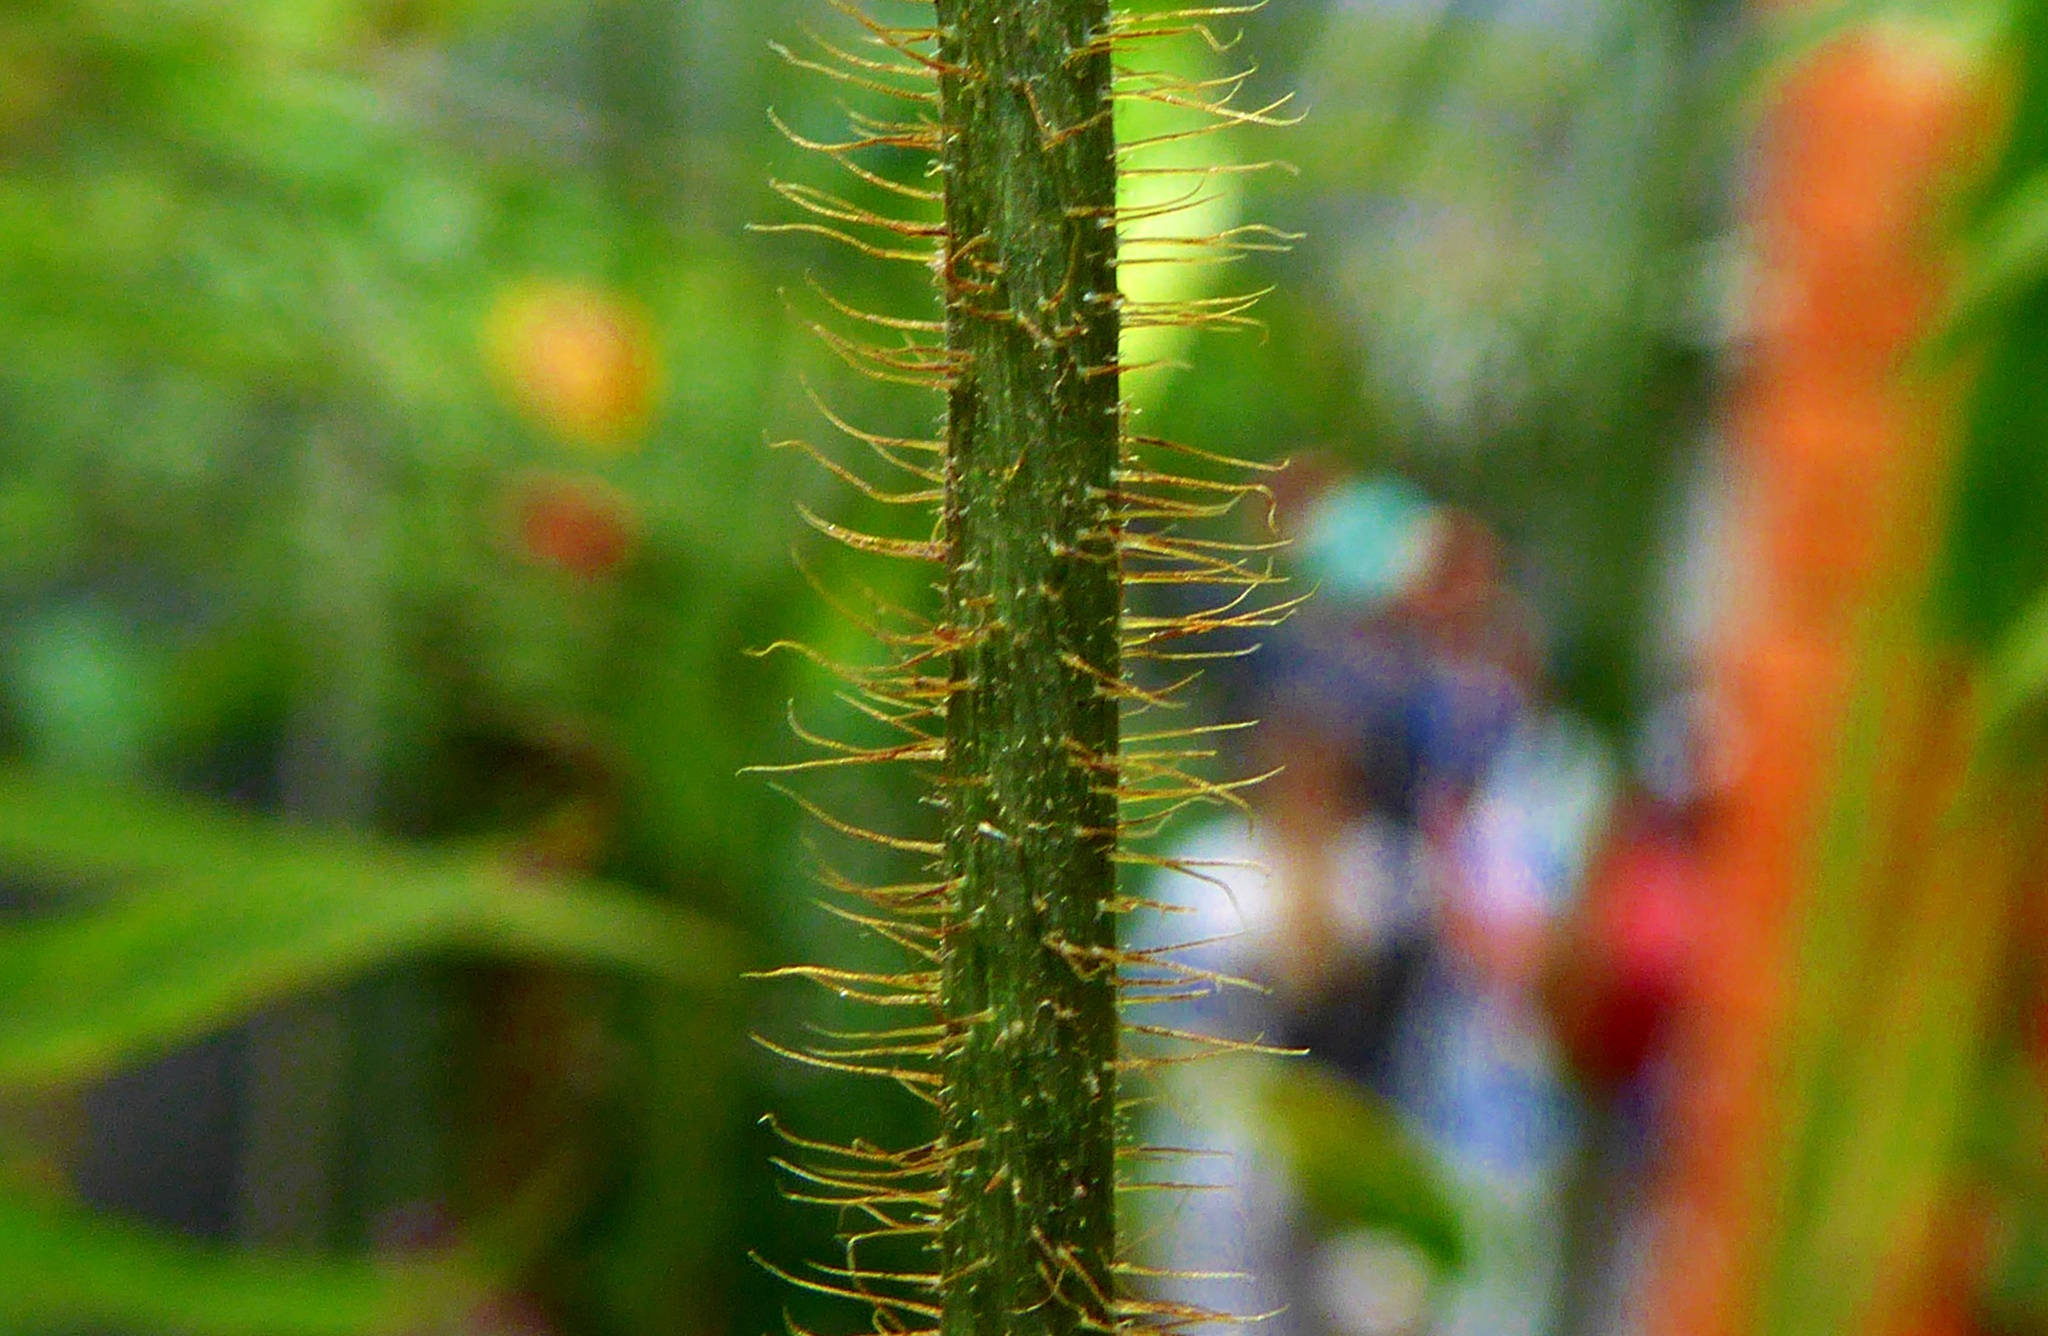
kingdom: Plantae
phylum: Tracheophyta
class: Magnoliopsida
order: Piperales
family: Aristolochiaceae
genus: Aristolochia
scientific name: Aristolochia pilosa
